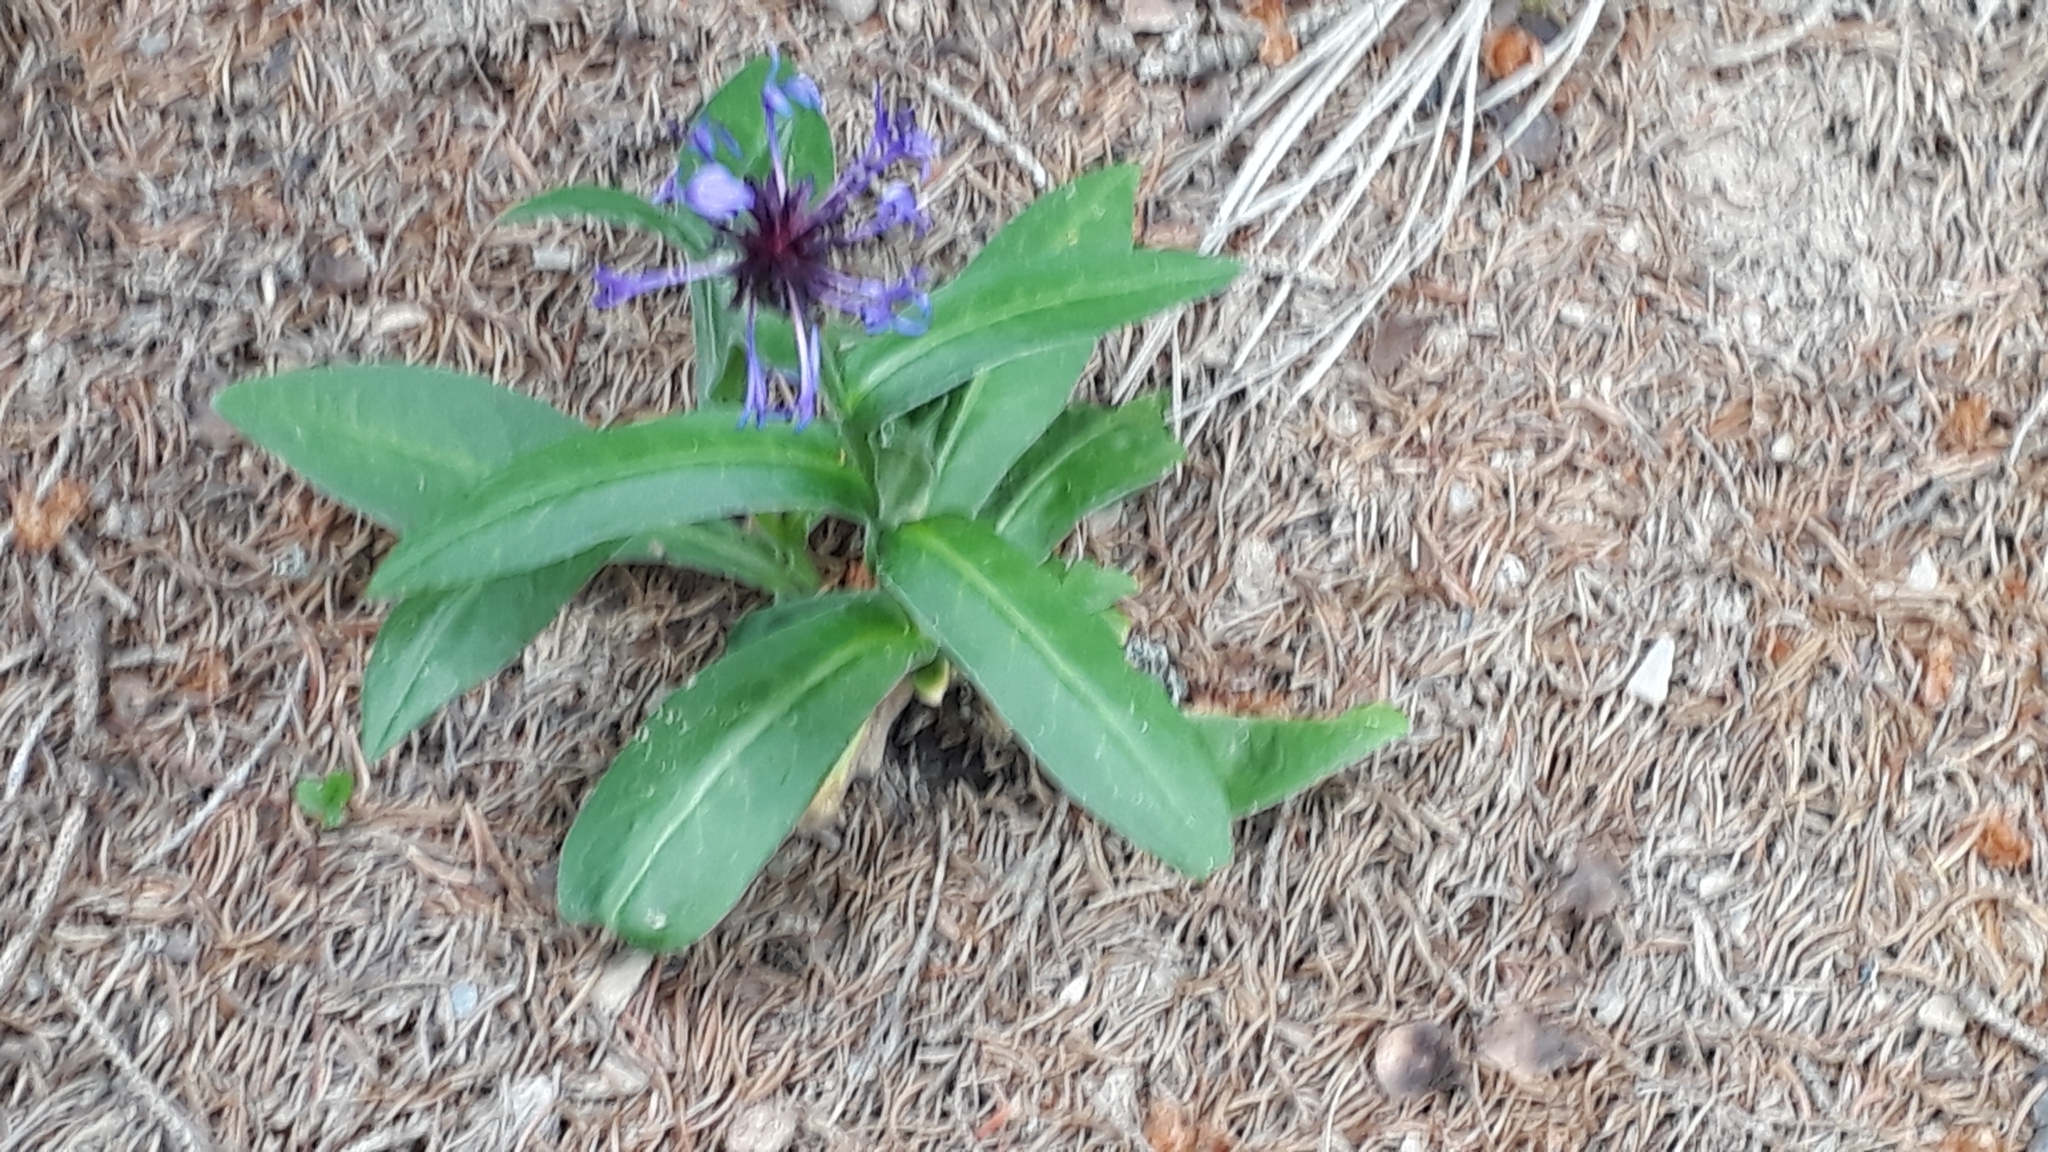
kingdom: Plantae
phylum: Tracheophyta
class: Magnoliopsida
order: Asterales
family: Asteraceae
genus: Centaurea
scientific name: Centaurea montana
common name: Perennial cornflower
